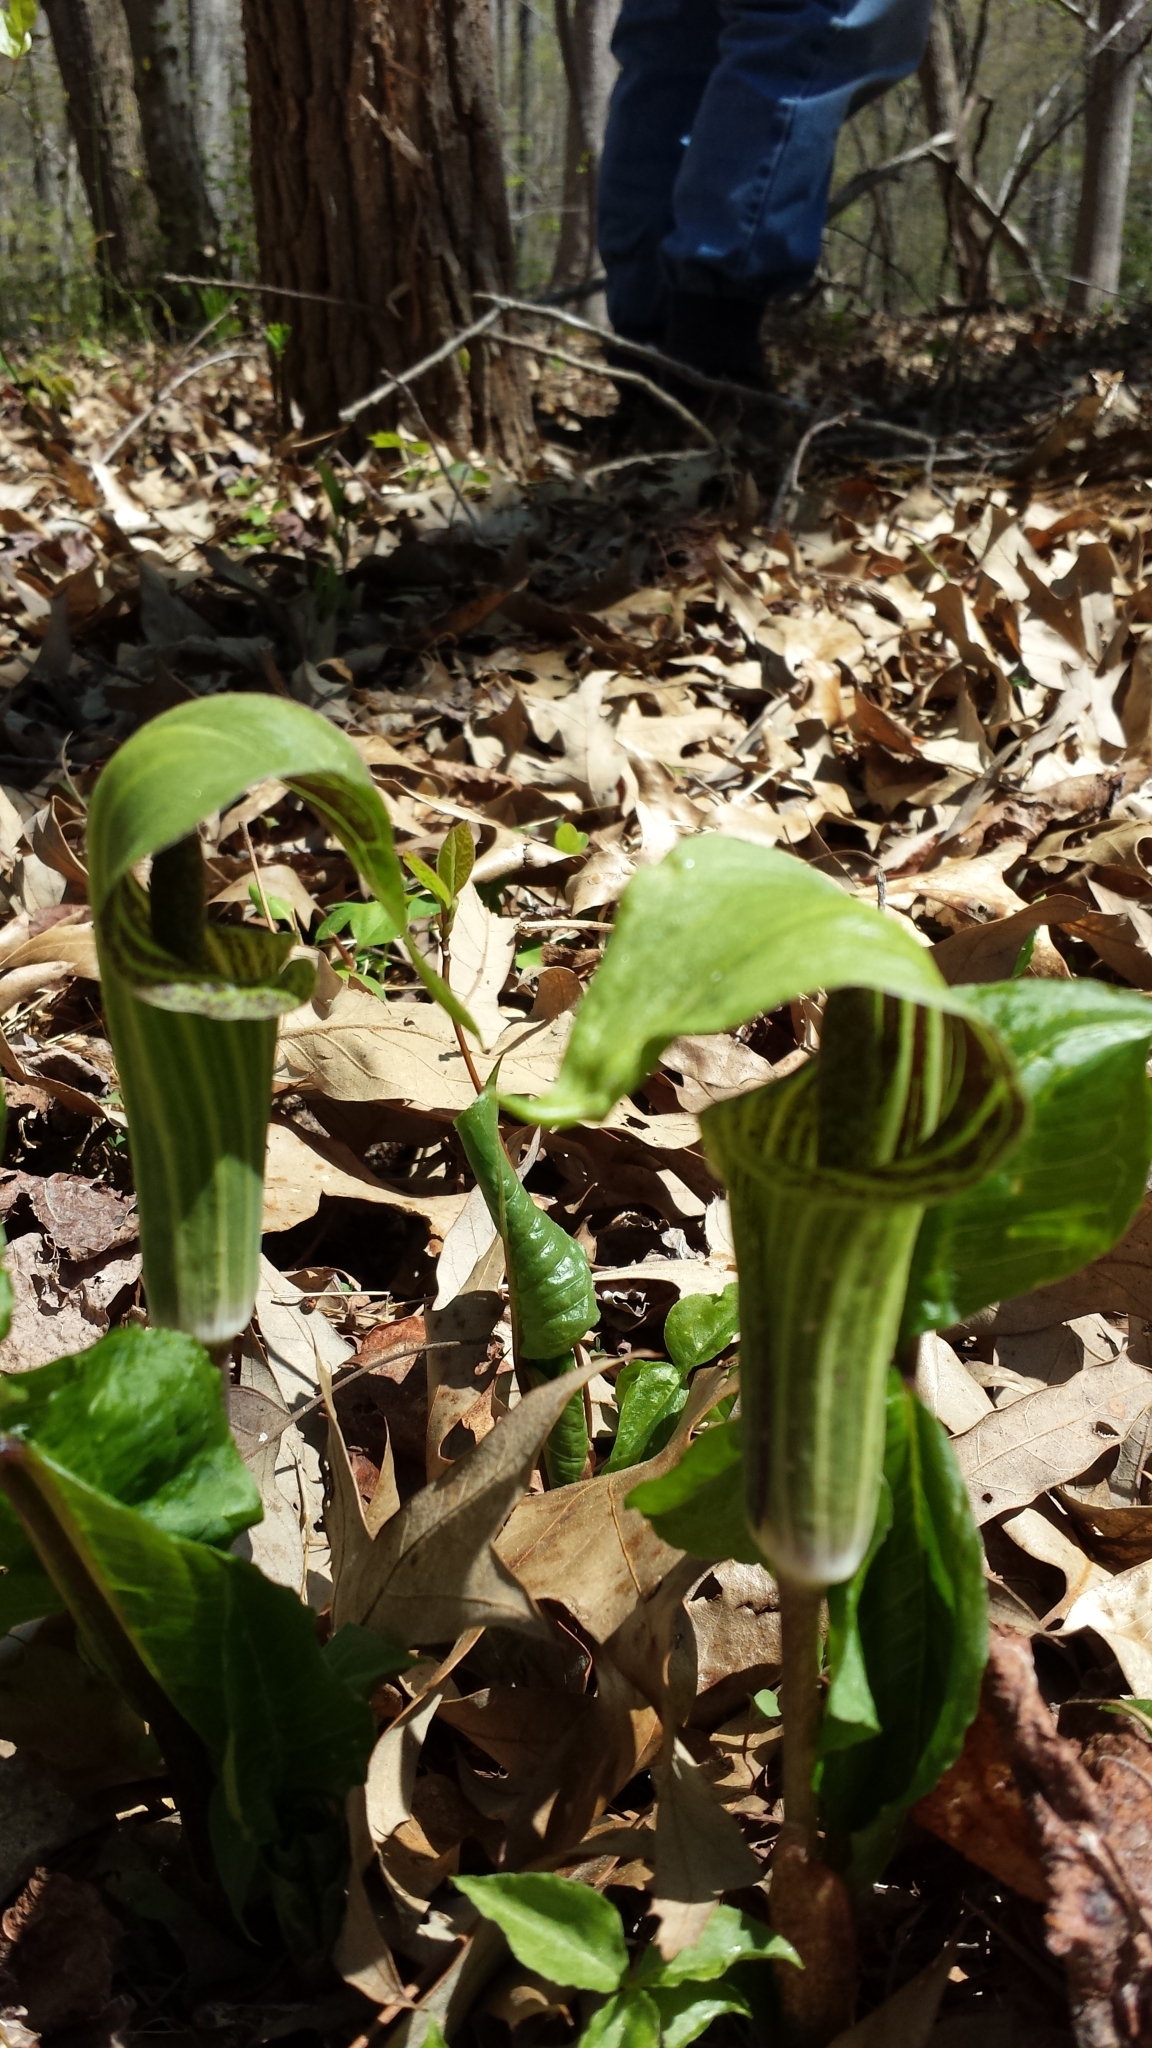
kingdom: Plantae
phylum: Tracheophyta
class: Liliopsida
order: Alismatales
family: Araceae
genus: Arisaema
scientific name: Arisaema triphyllum
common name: Jack-in-the-pulpit
